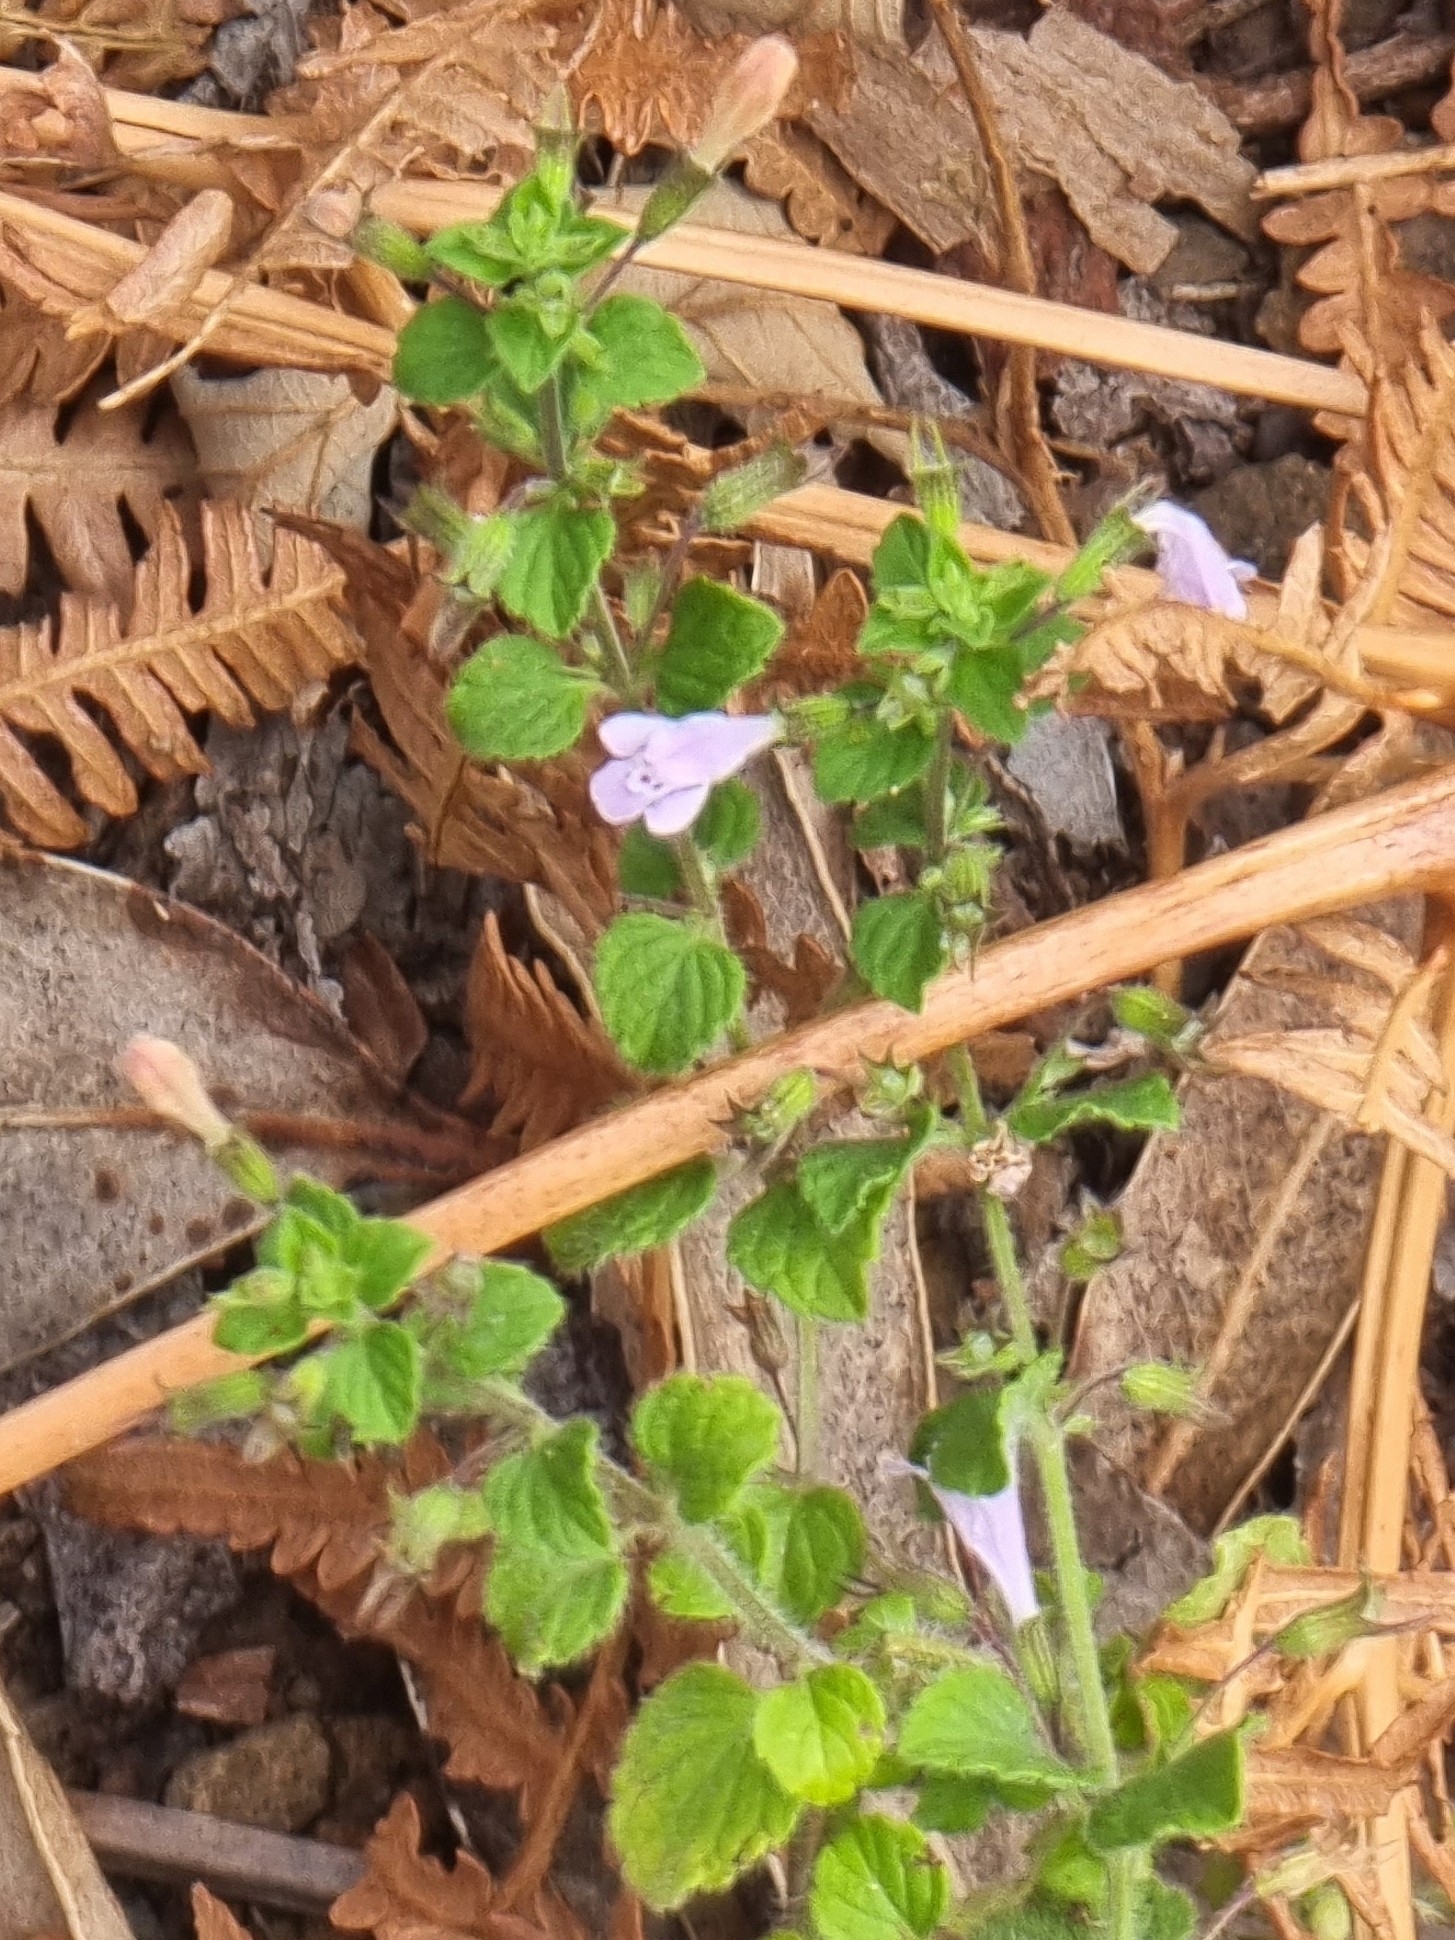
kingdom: Plantae
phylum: Tracheophyta
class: Magnoliopsida
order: Lamiales
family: Lamiaceae
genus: Clinopodium
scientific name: Clinopodium menthifolium
